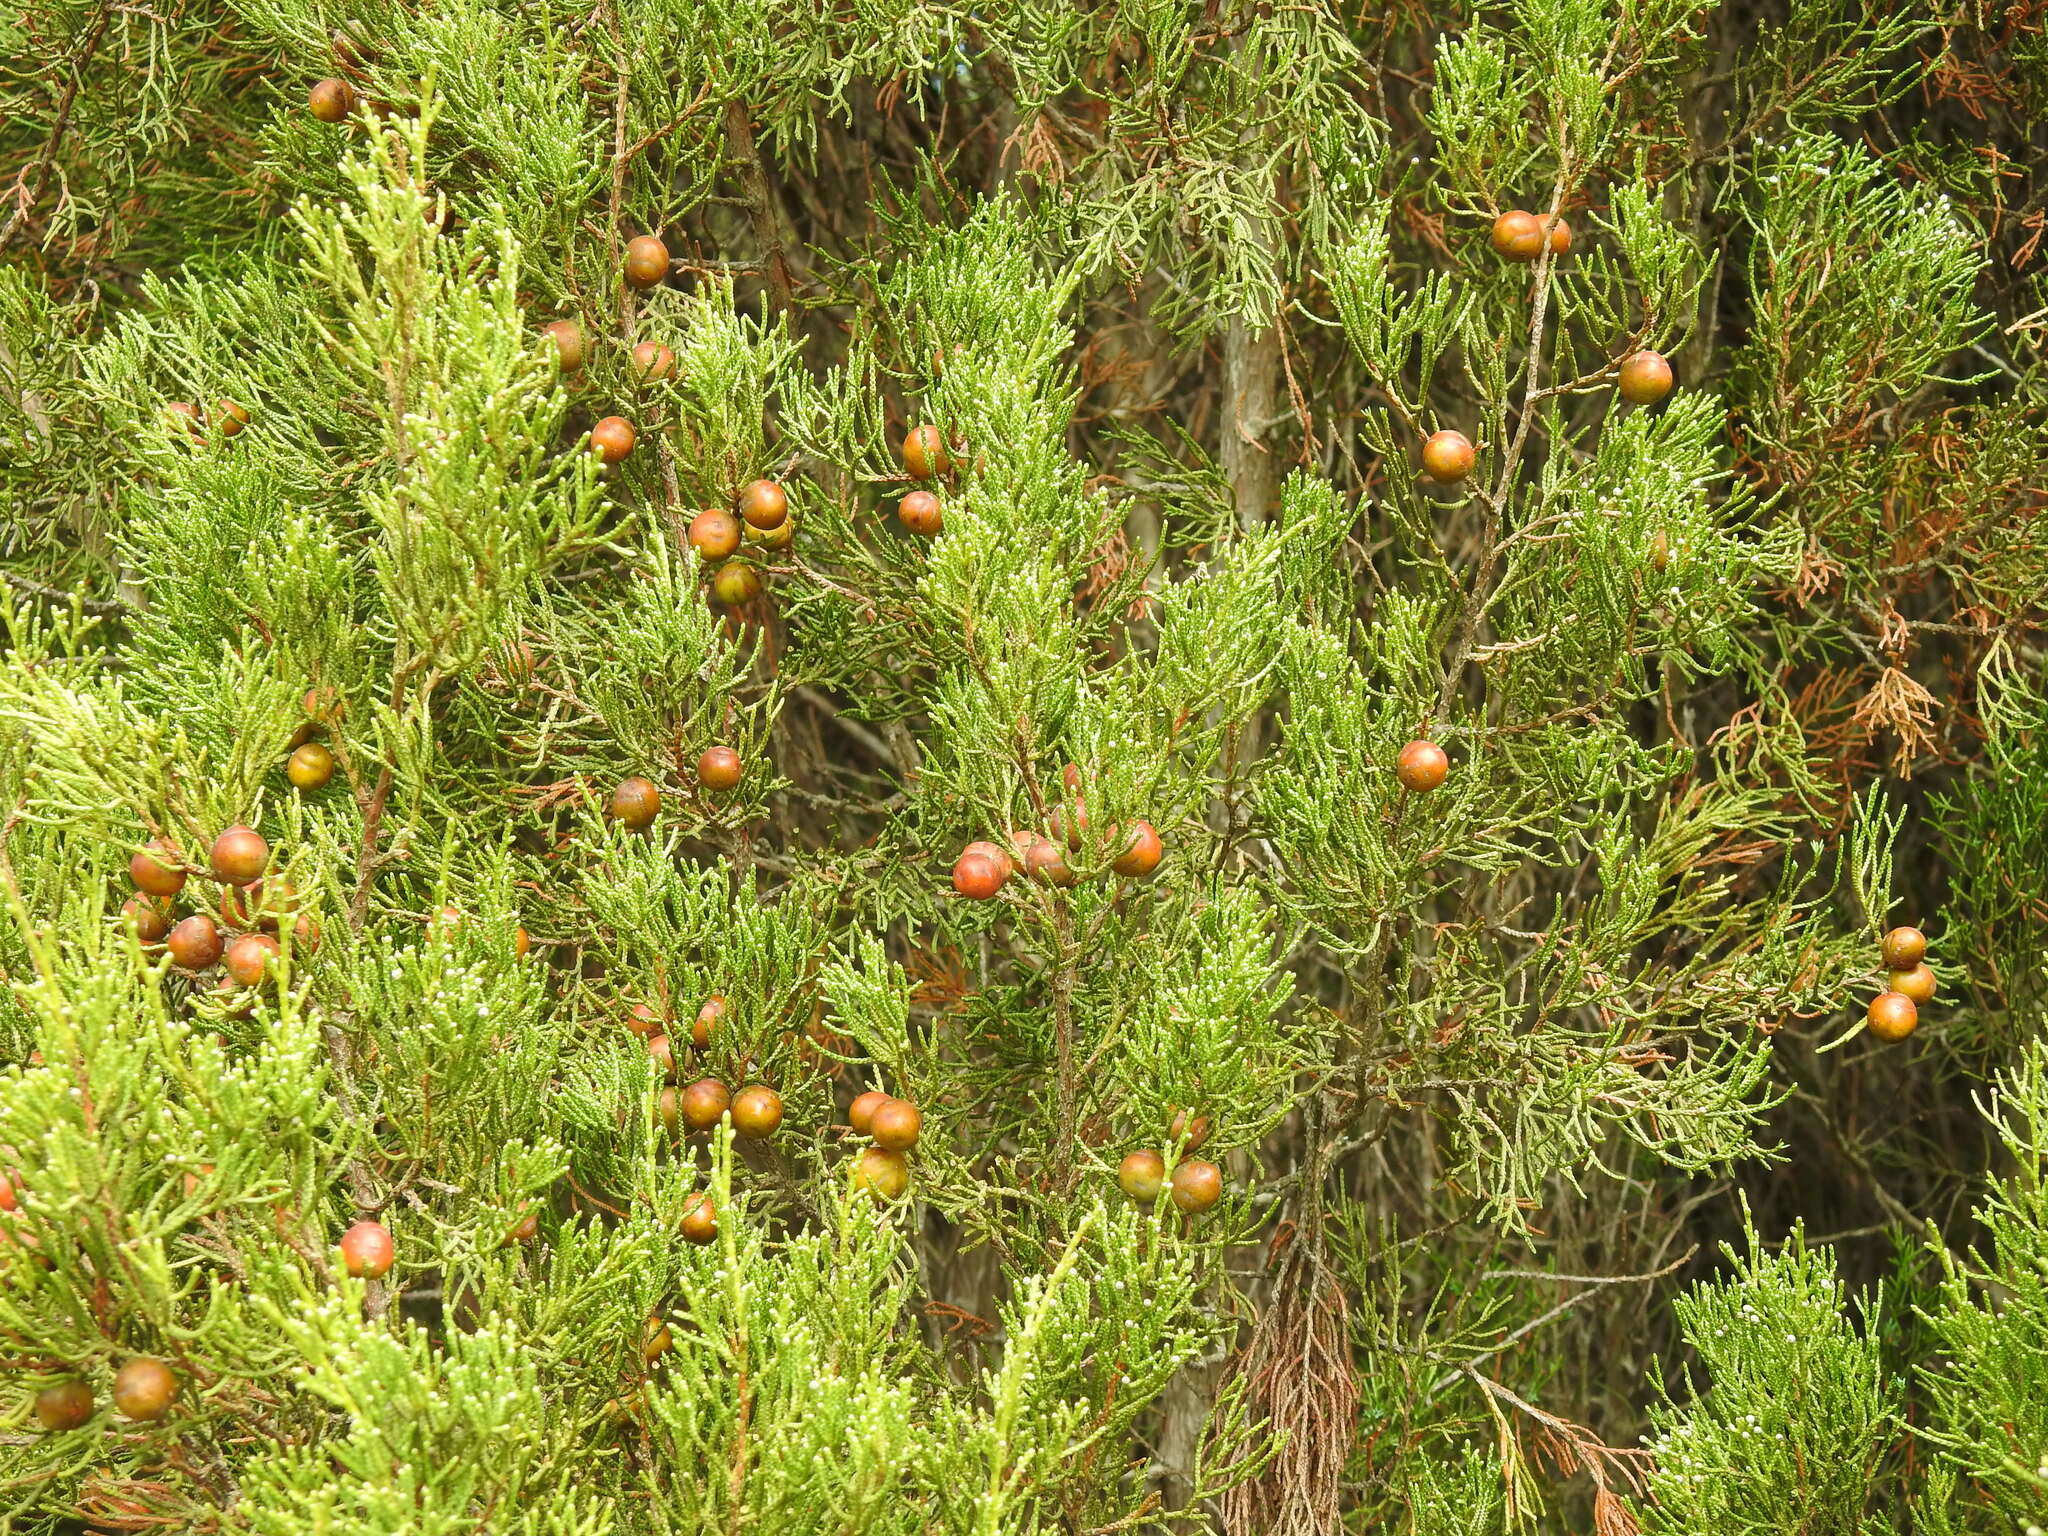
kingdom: Plantae
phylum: Tracheophyta
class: Pinopsida
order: Pinales
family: Cupressaceae
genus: Juniperus
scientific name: Juniperus phoenicea
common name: Phoenician juniper
